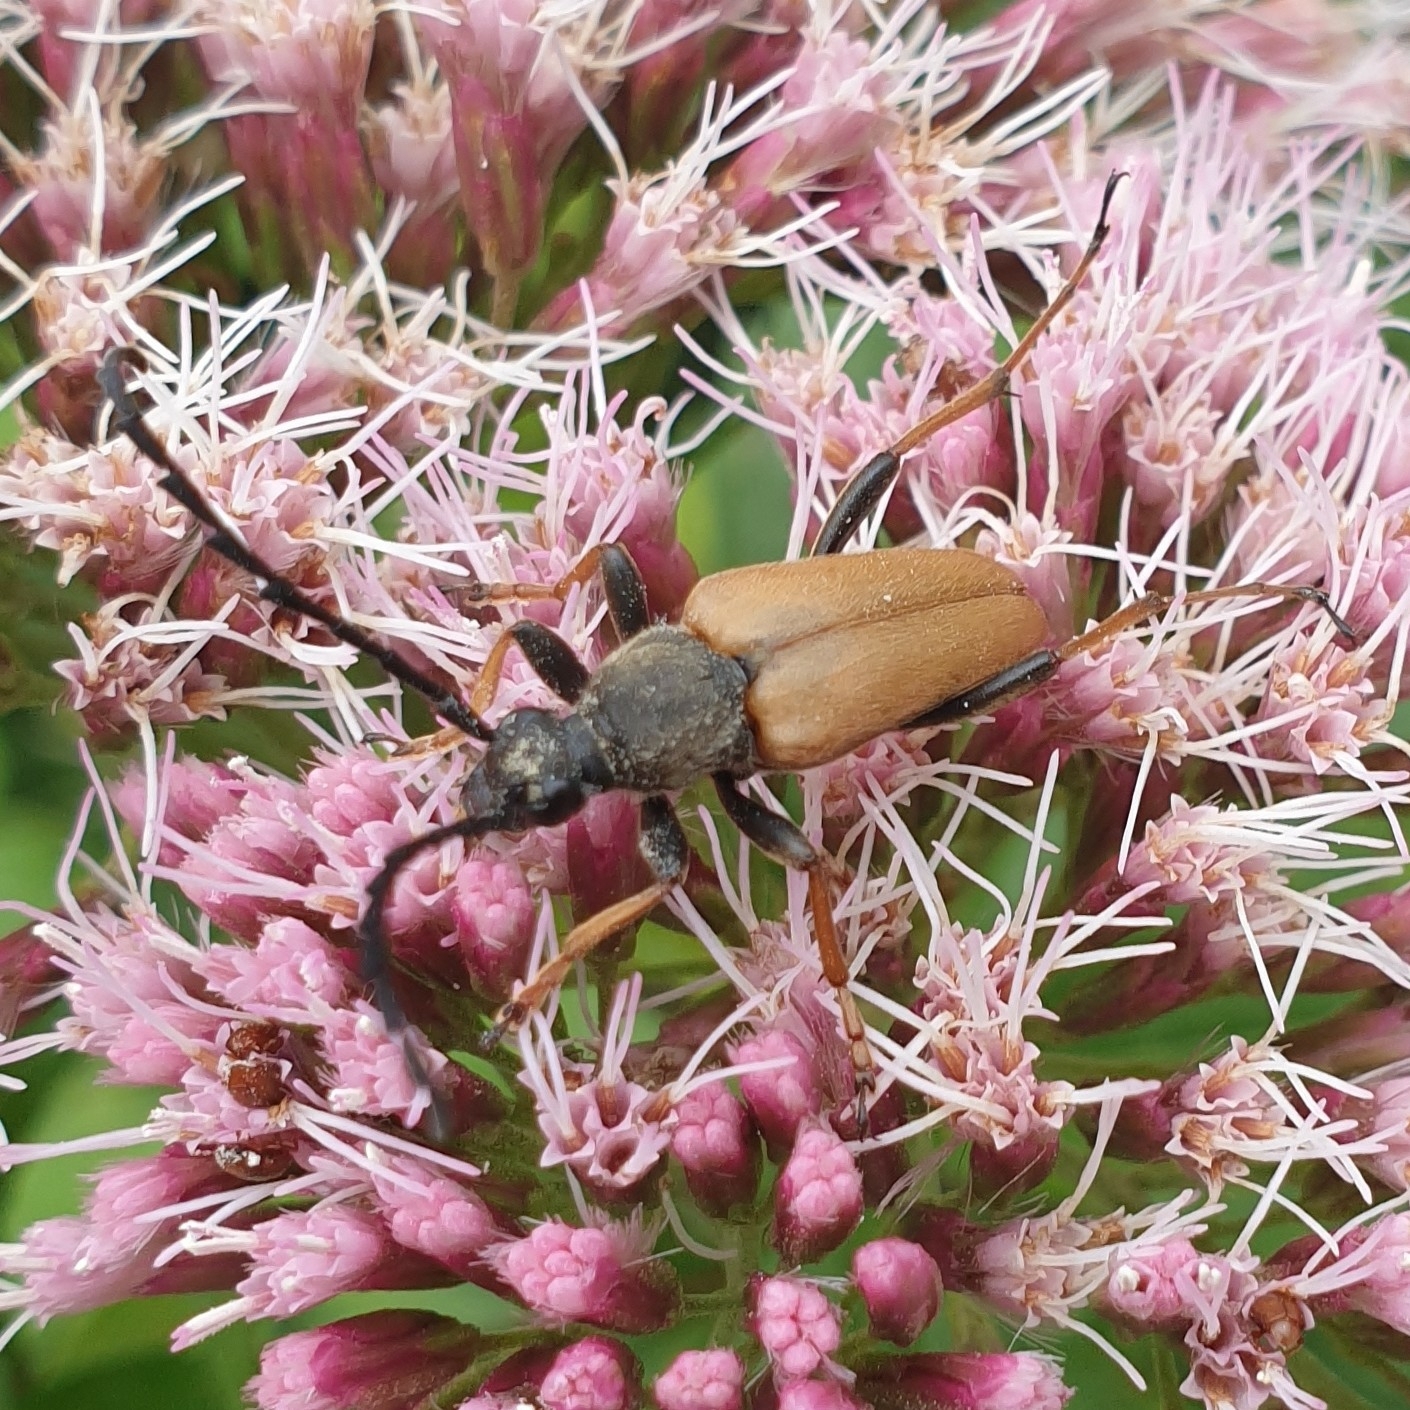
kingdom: Animalia
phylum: Arthropoda
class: Insecta
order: Coleoptera
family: Cerambycidae
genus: Stictoleptura
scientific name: Stictoleptura rubra
